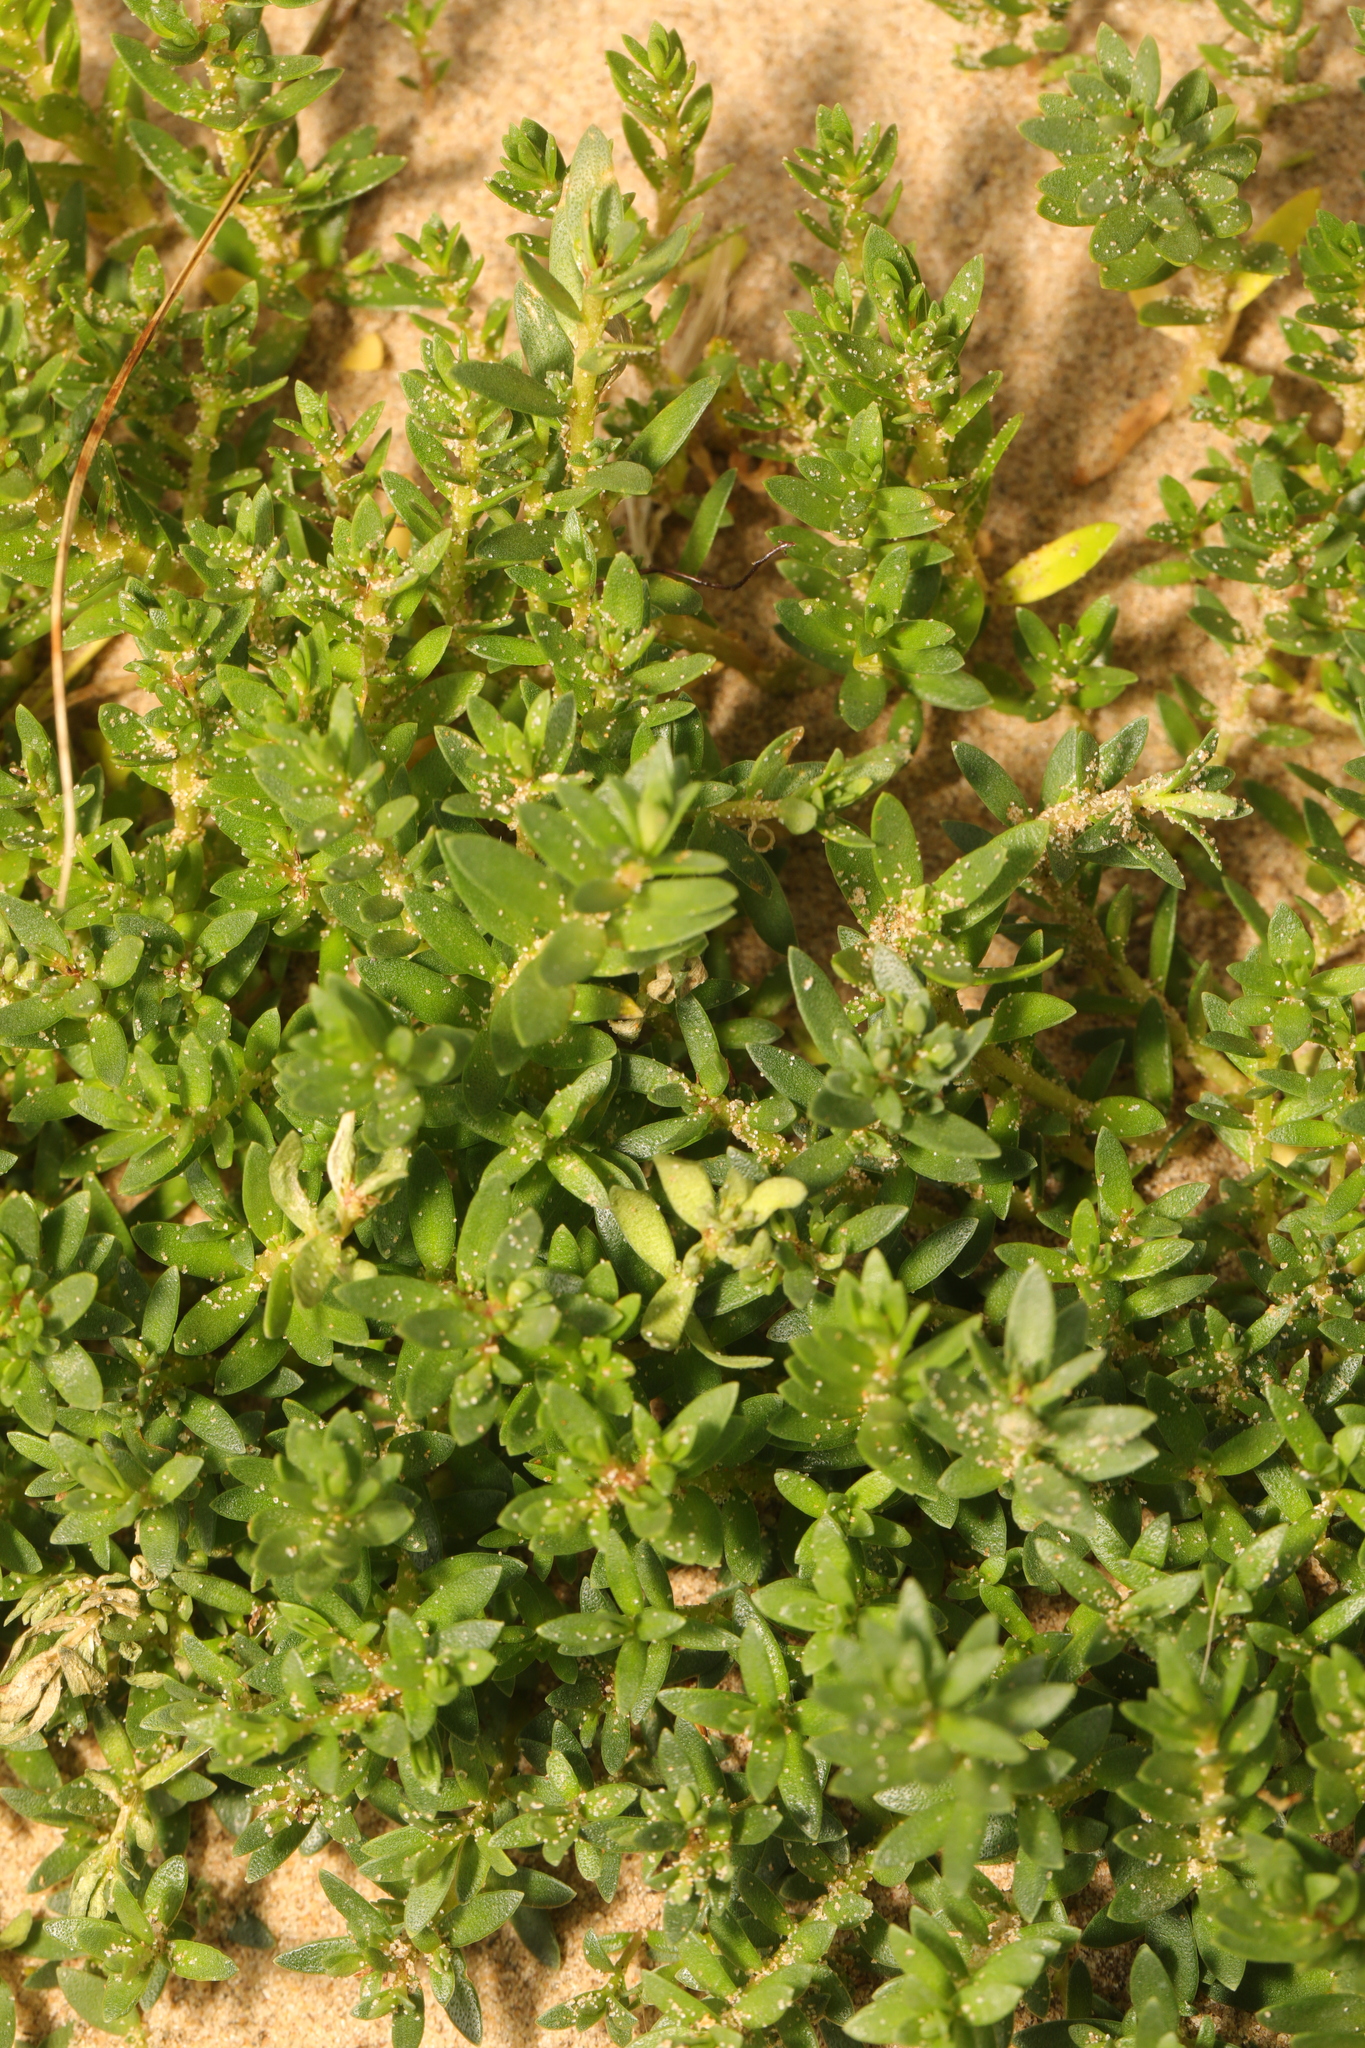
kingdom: Plantae
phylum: Tracheophyta
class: Magnoliopsida
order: Ericales
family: Primulaceae
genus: Lysimachia
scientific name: Lysimachia maritima
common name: Sea milkwort
